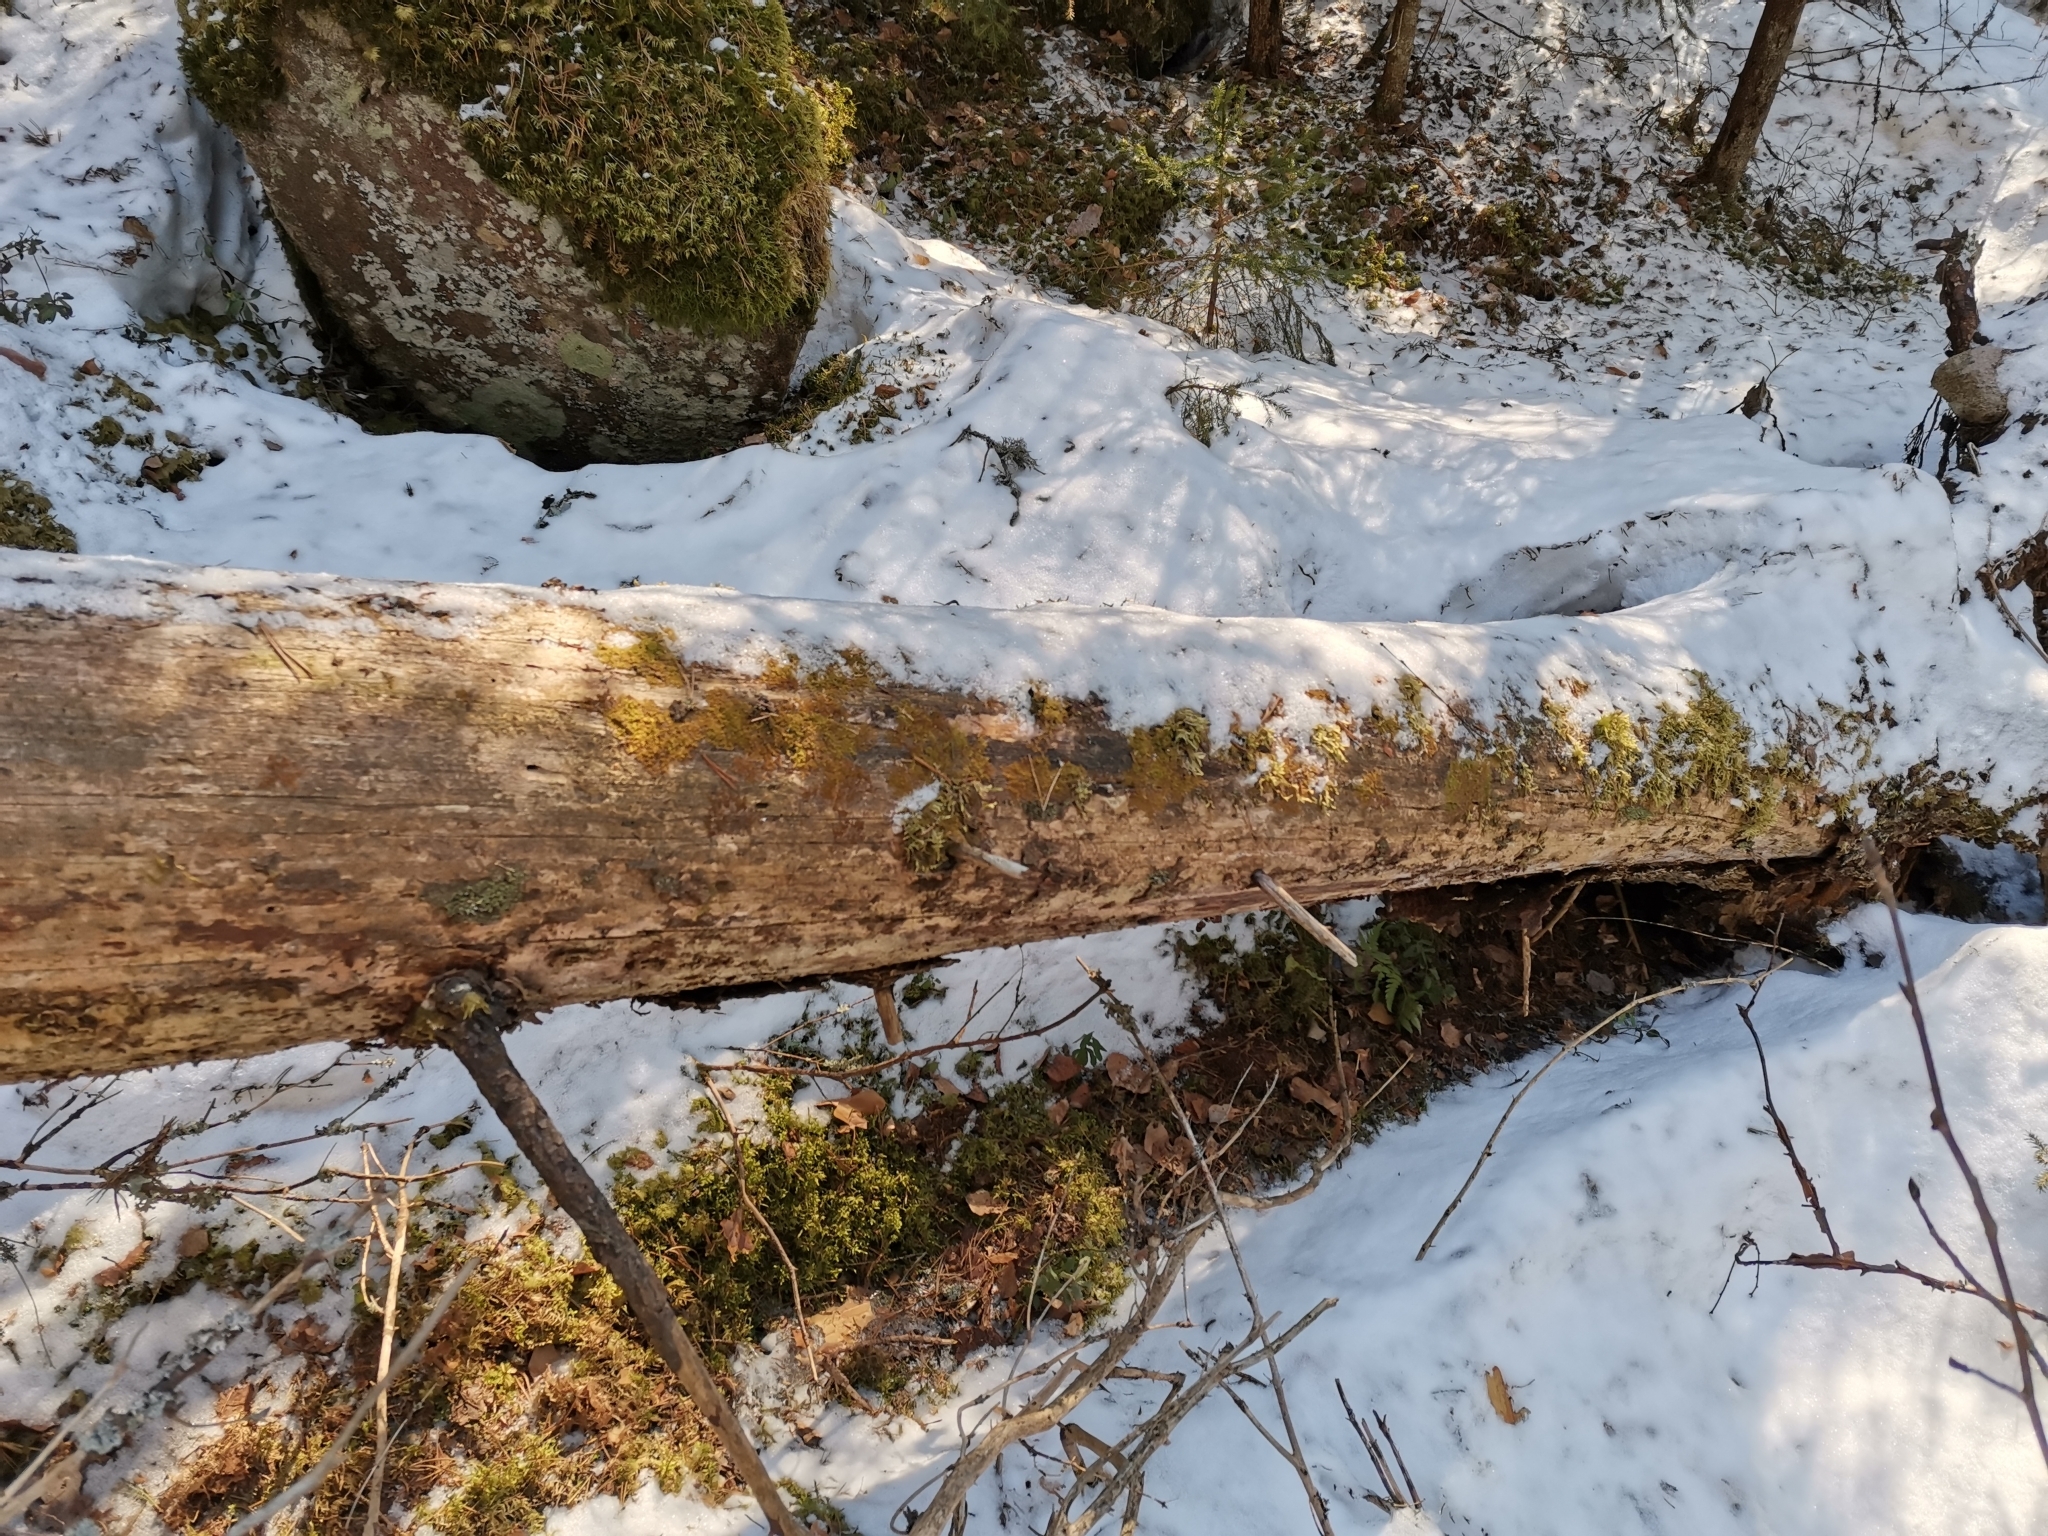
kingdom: Plantae
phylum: Marchantiophyta
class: Jungermanniopsida
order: Ptilidiales
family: Ptilidiaceae
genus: Ptilidium
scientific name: Ptilidium pulcherrimum
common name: Tree fringewort
